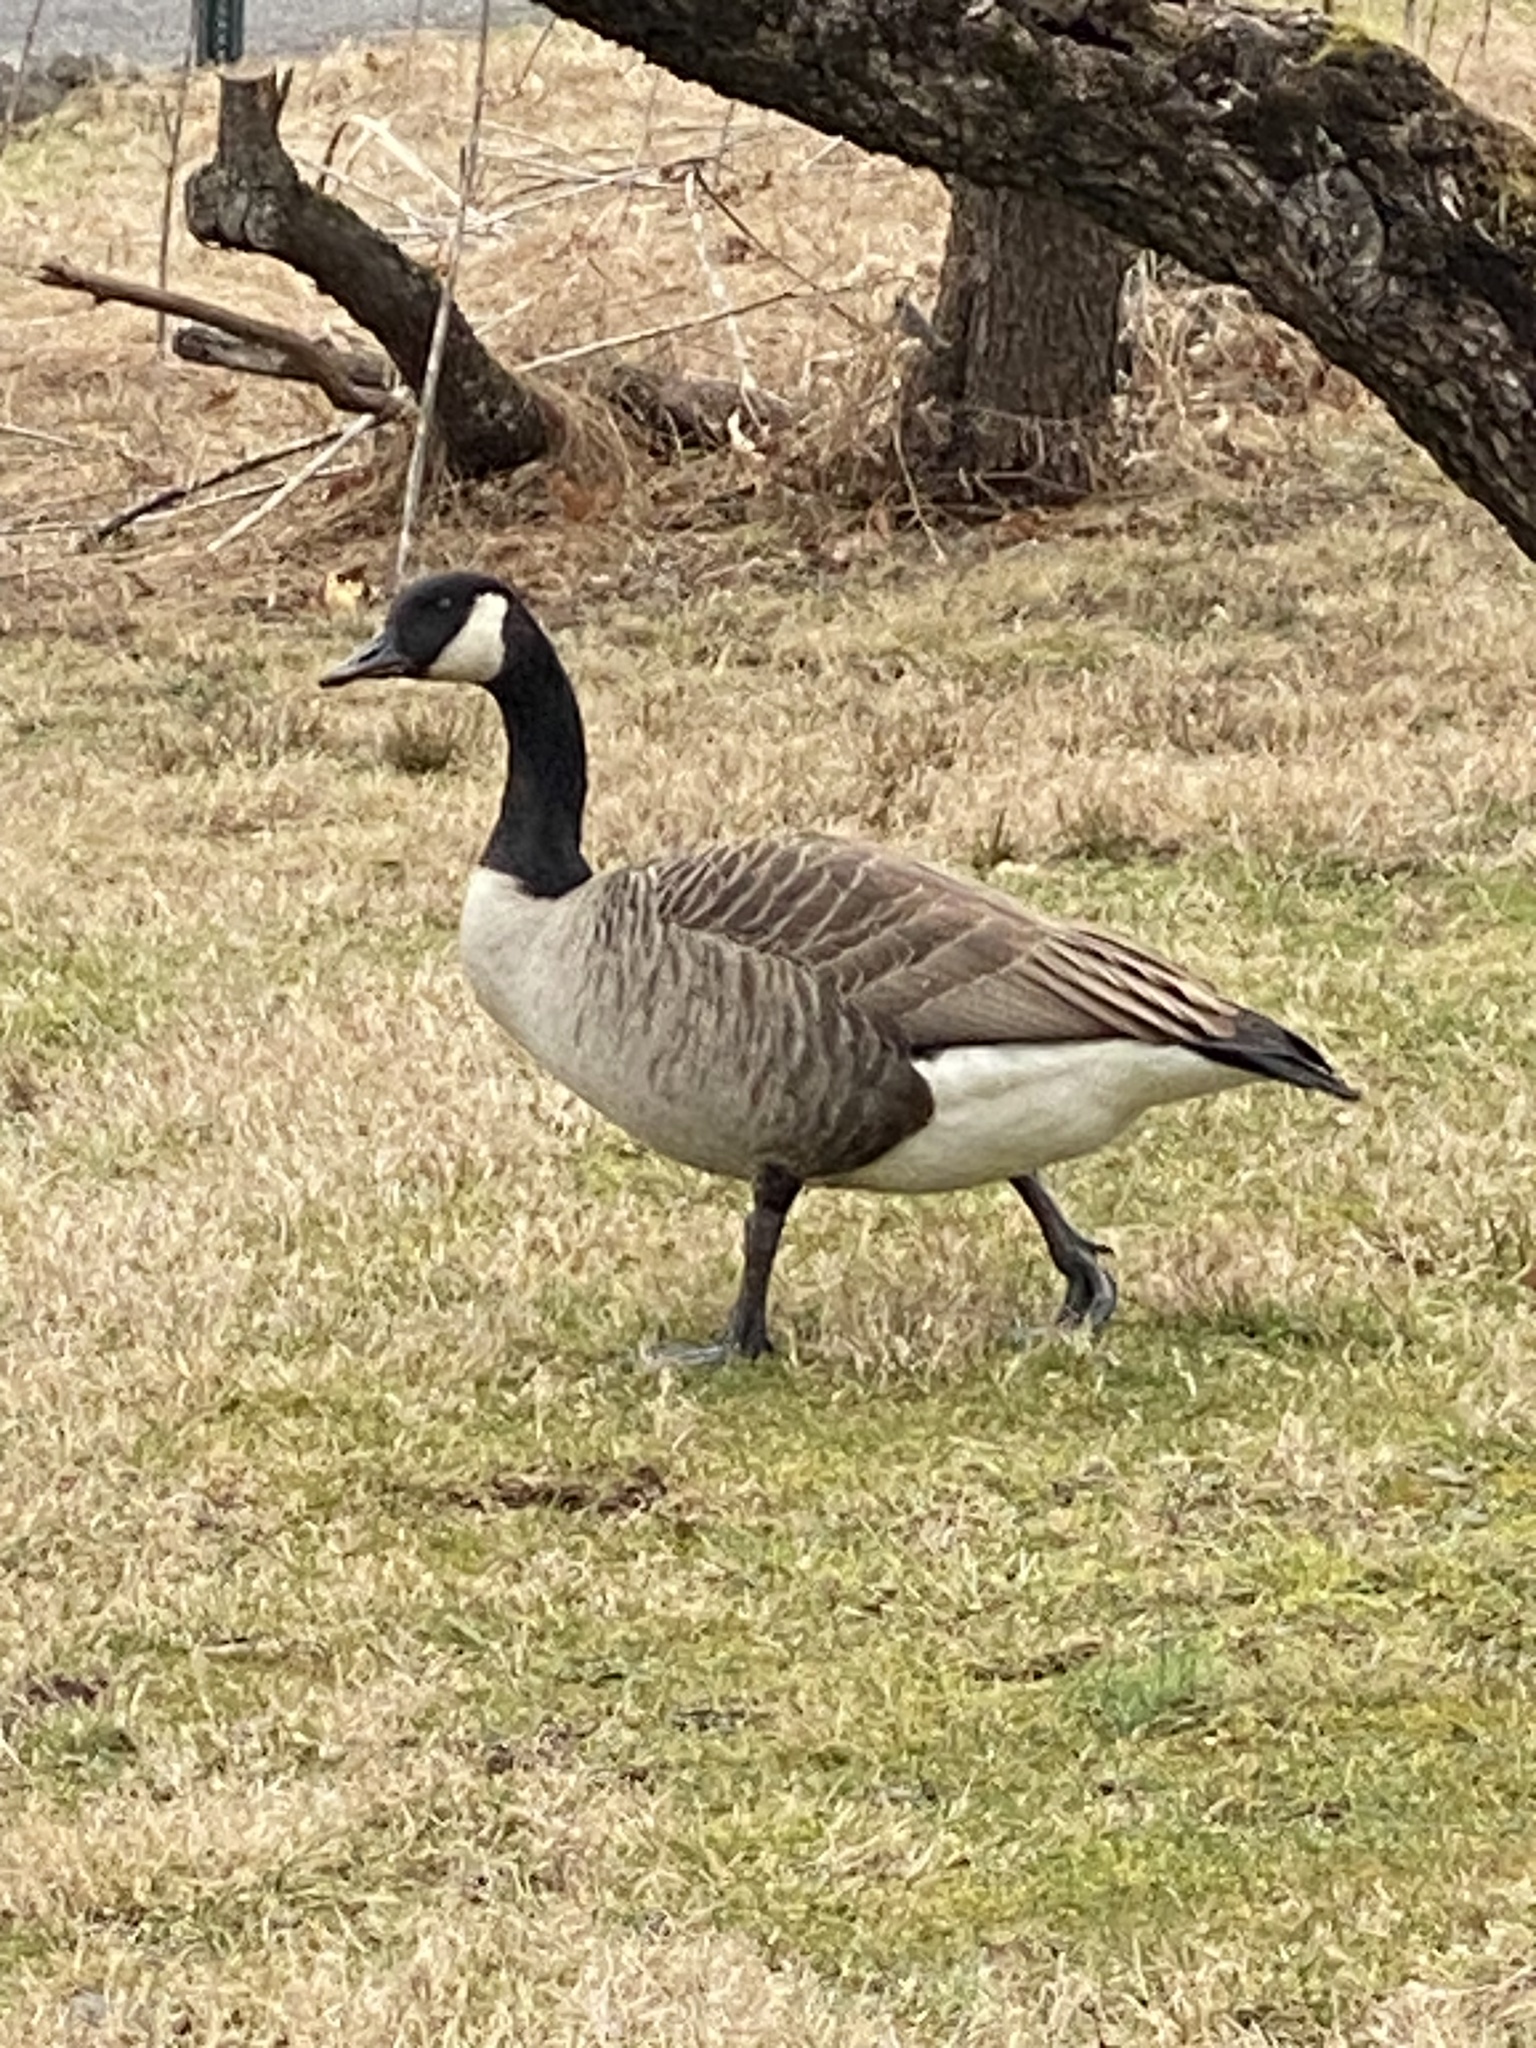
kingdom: Animalia
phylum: Chordata
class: Aves
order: Anseriformes
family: Anatidae
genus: Branta
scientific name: Branta canadensis
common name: Canada goose
